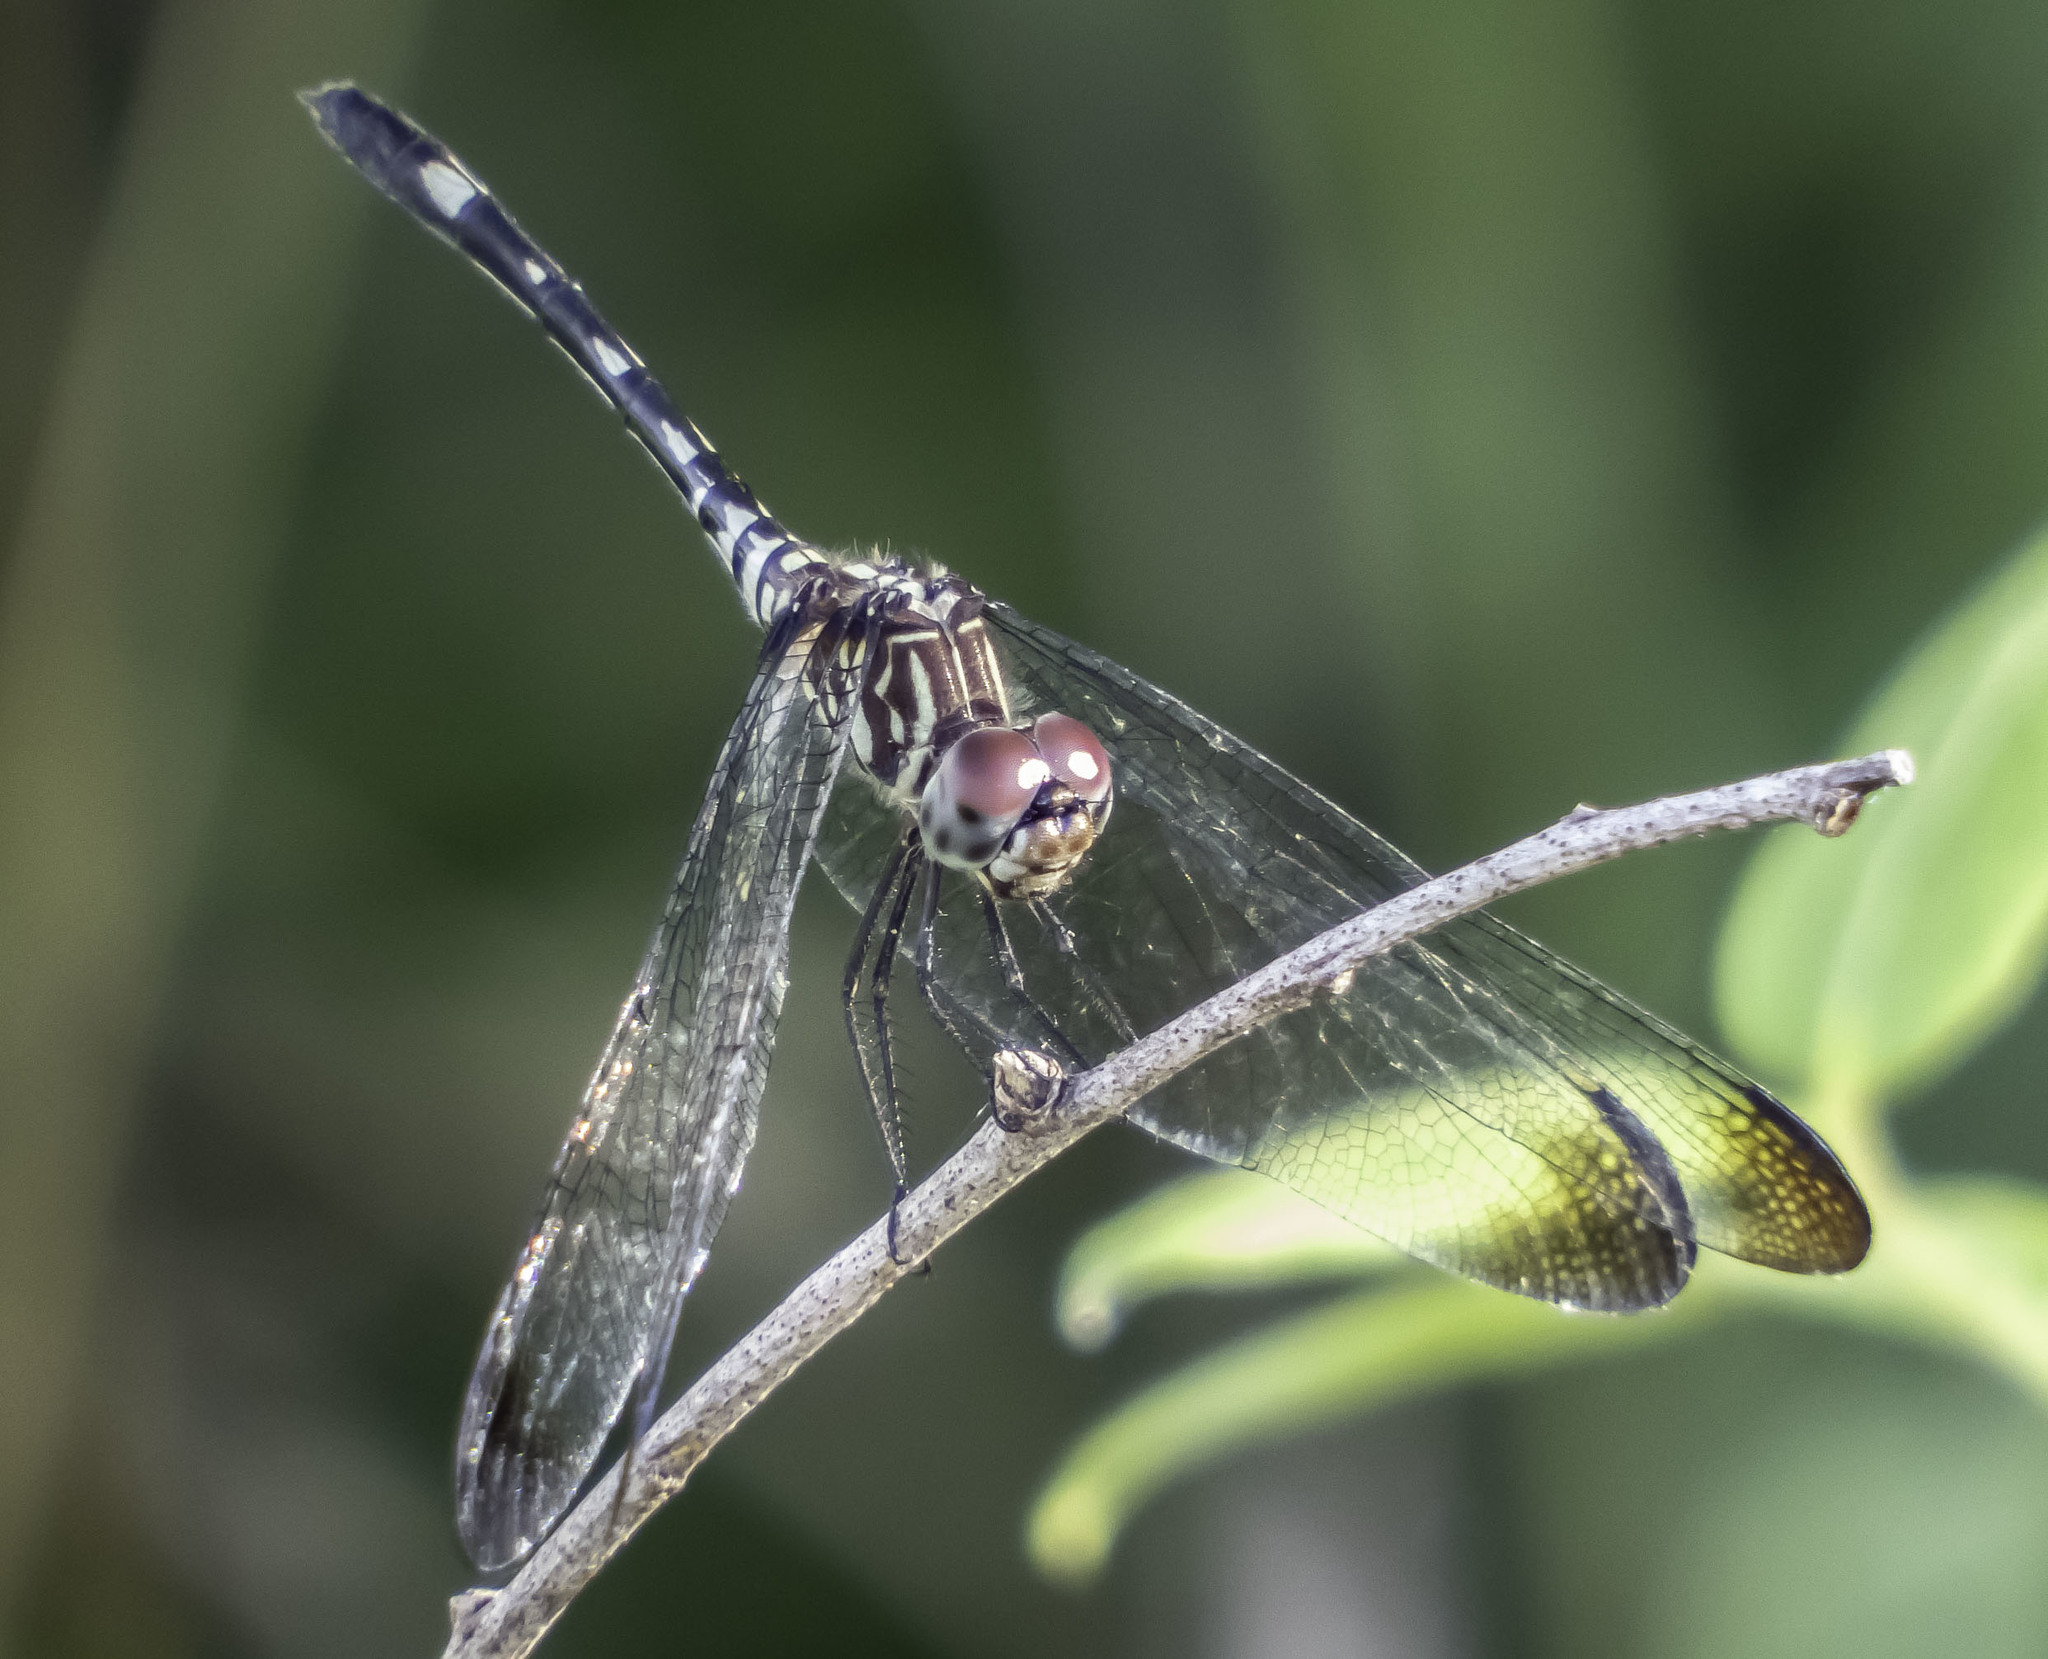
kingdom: Animalia
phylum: Arthropoda
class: Insecta
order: Odonata
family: Libellulidae
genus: Dythemis
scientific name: Dythemis velox
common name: Swift setwing
